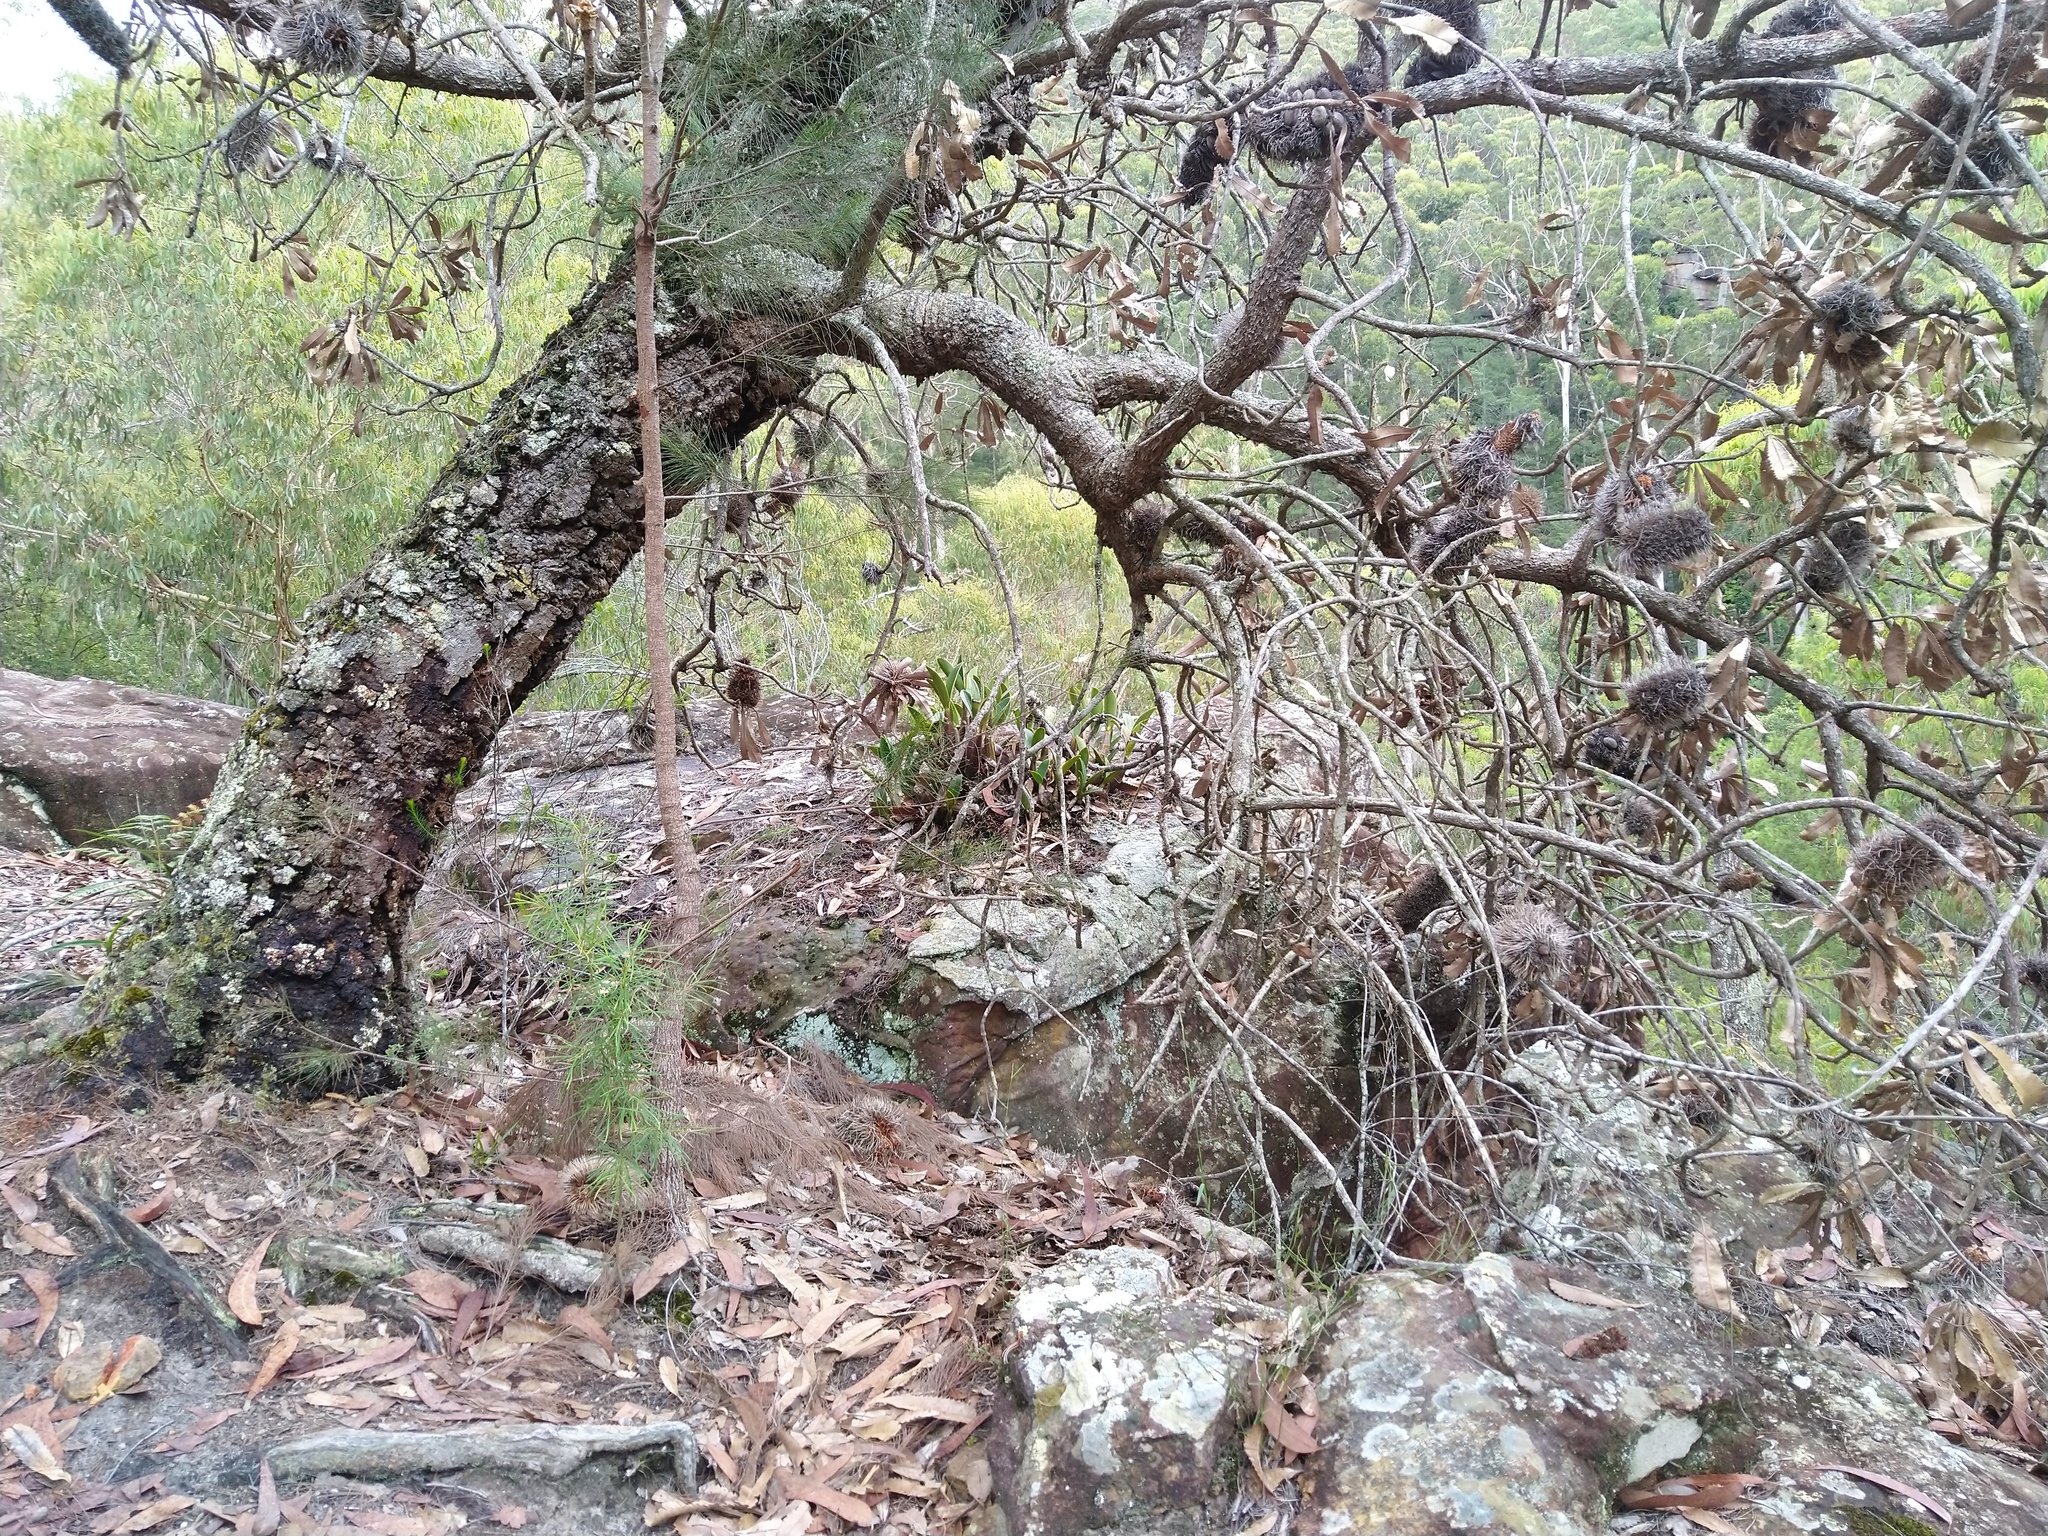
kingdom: Plantae
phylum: Tracheophyta
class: Liliopsida
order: Asparagales
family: Orchidaceae
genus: Dendrobium
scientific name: Dendrobium speciosum
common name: Rock-lily
